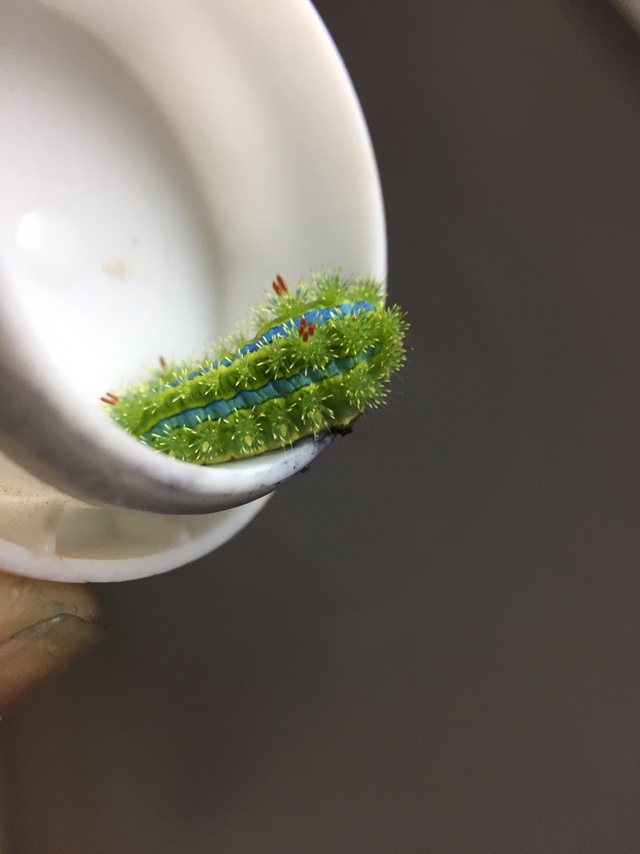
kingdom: Animalia
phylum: Arthropoda
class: Insecta
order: Lepidoptera
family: Limacodidae
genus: Parasa
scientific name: Parasa lepida
